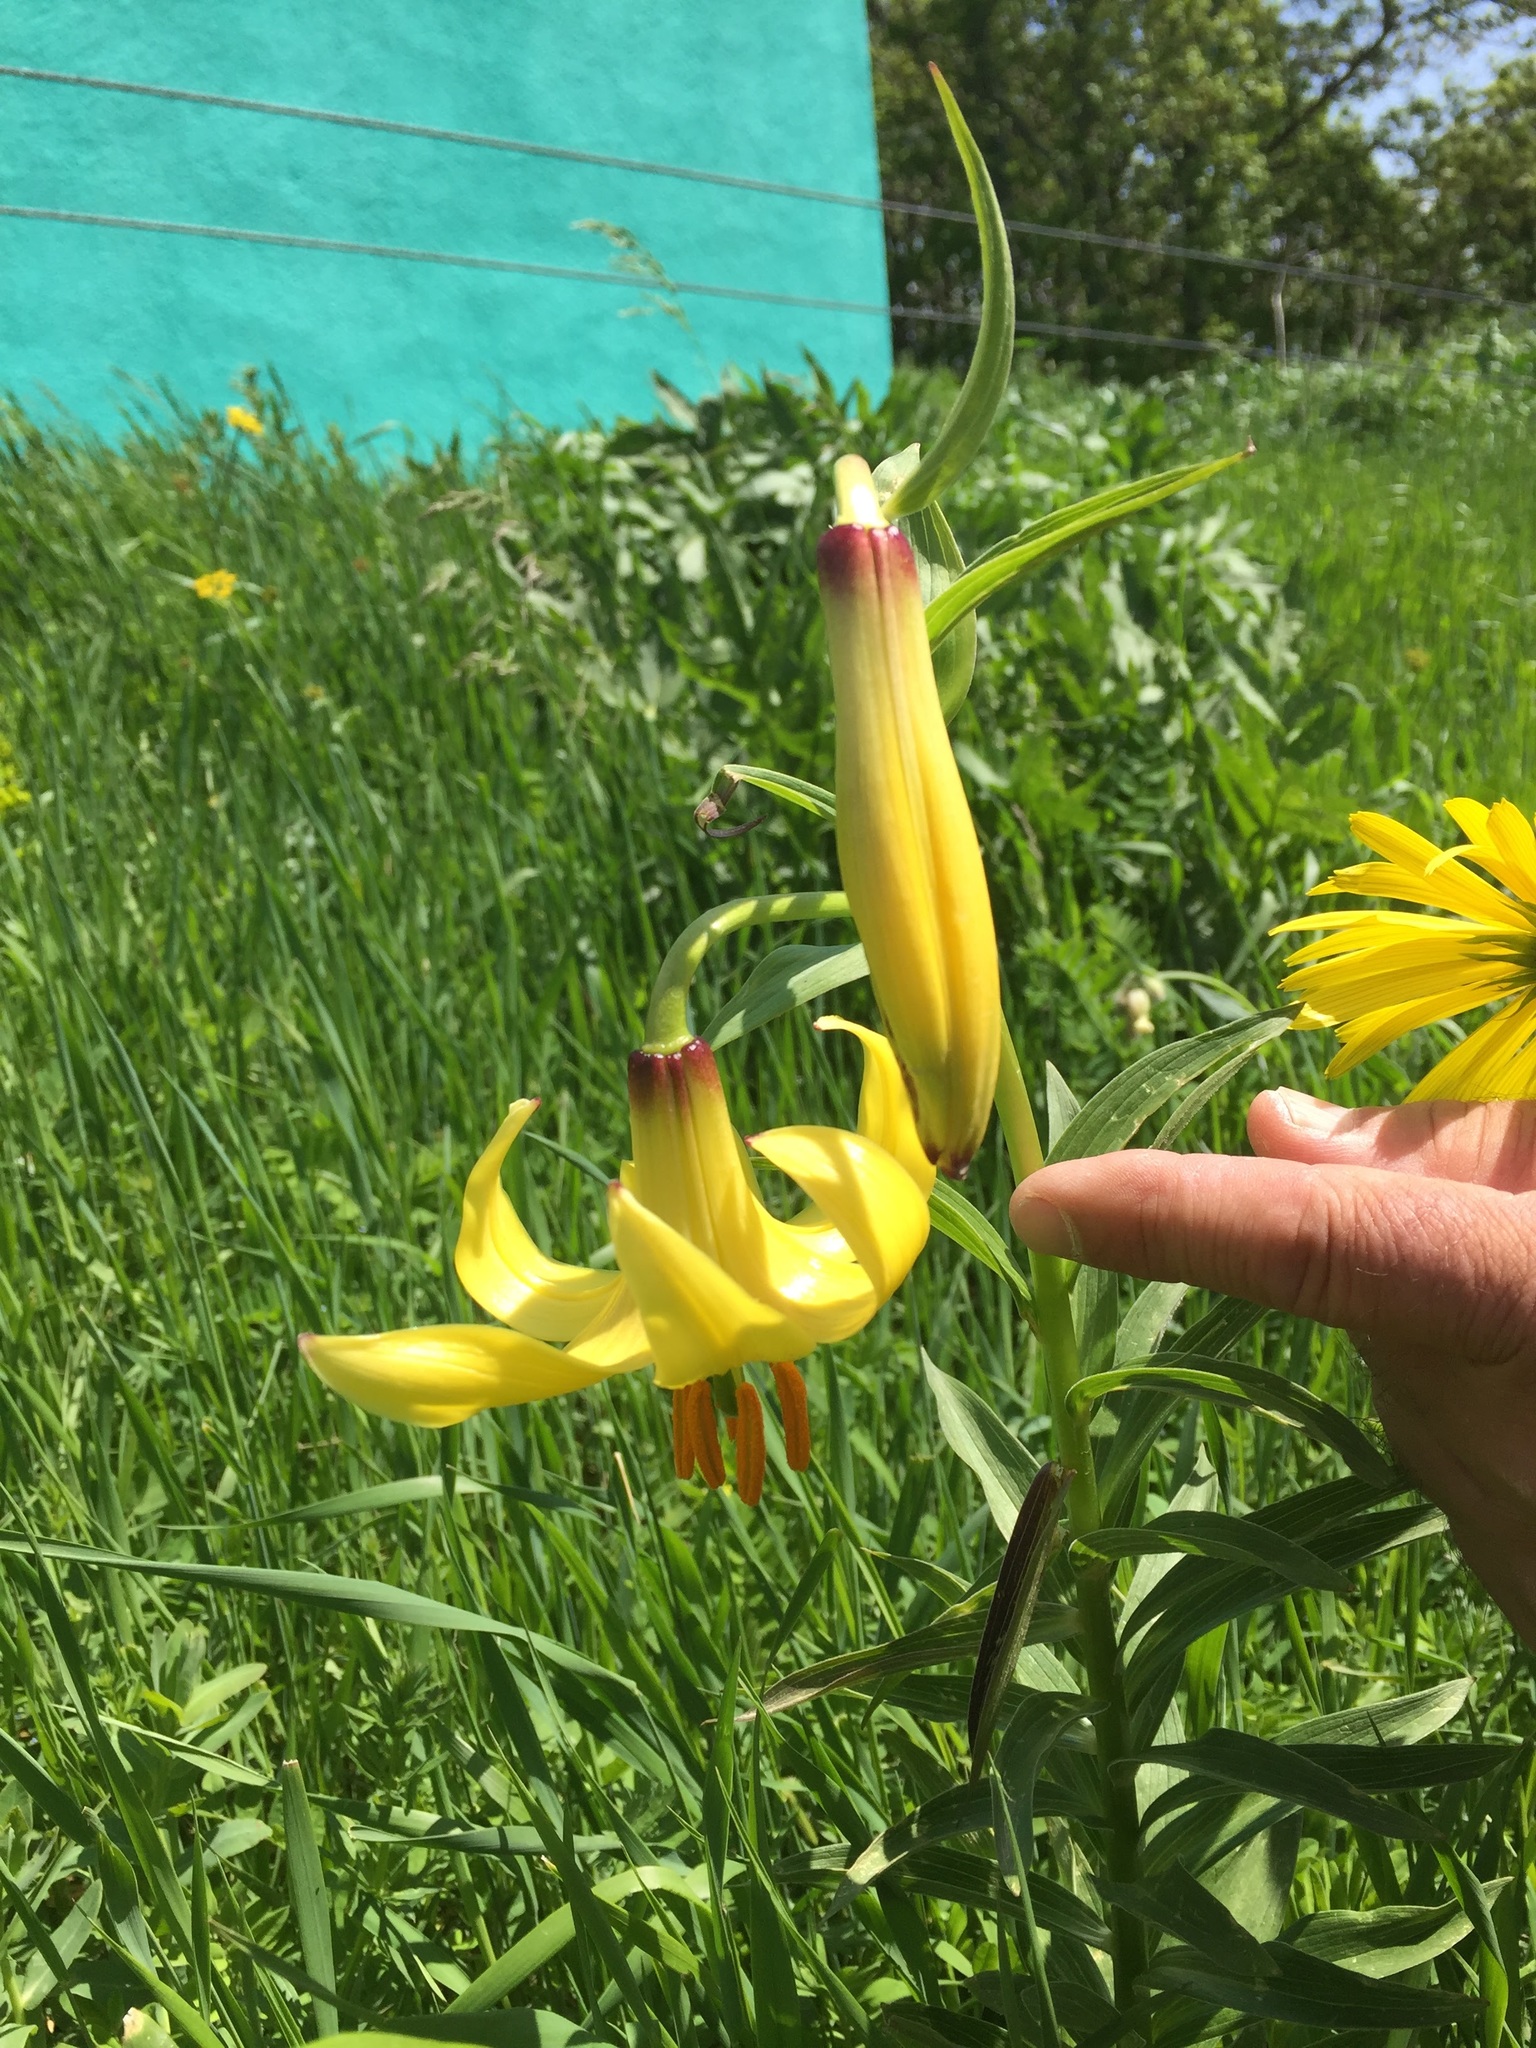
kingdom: Plantae
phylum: Tracheophyta
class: Liliopsida
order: Liliales
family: Liliaceae
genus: Lilium
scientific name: Lilium armenum
